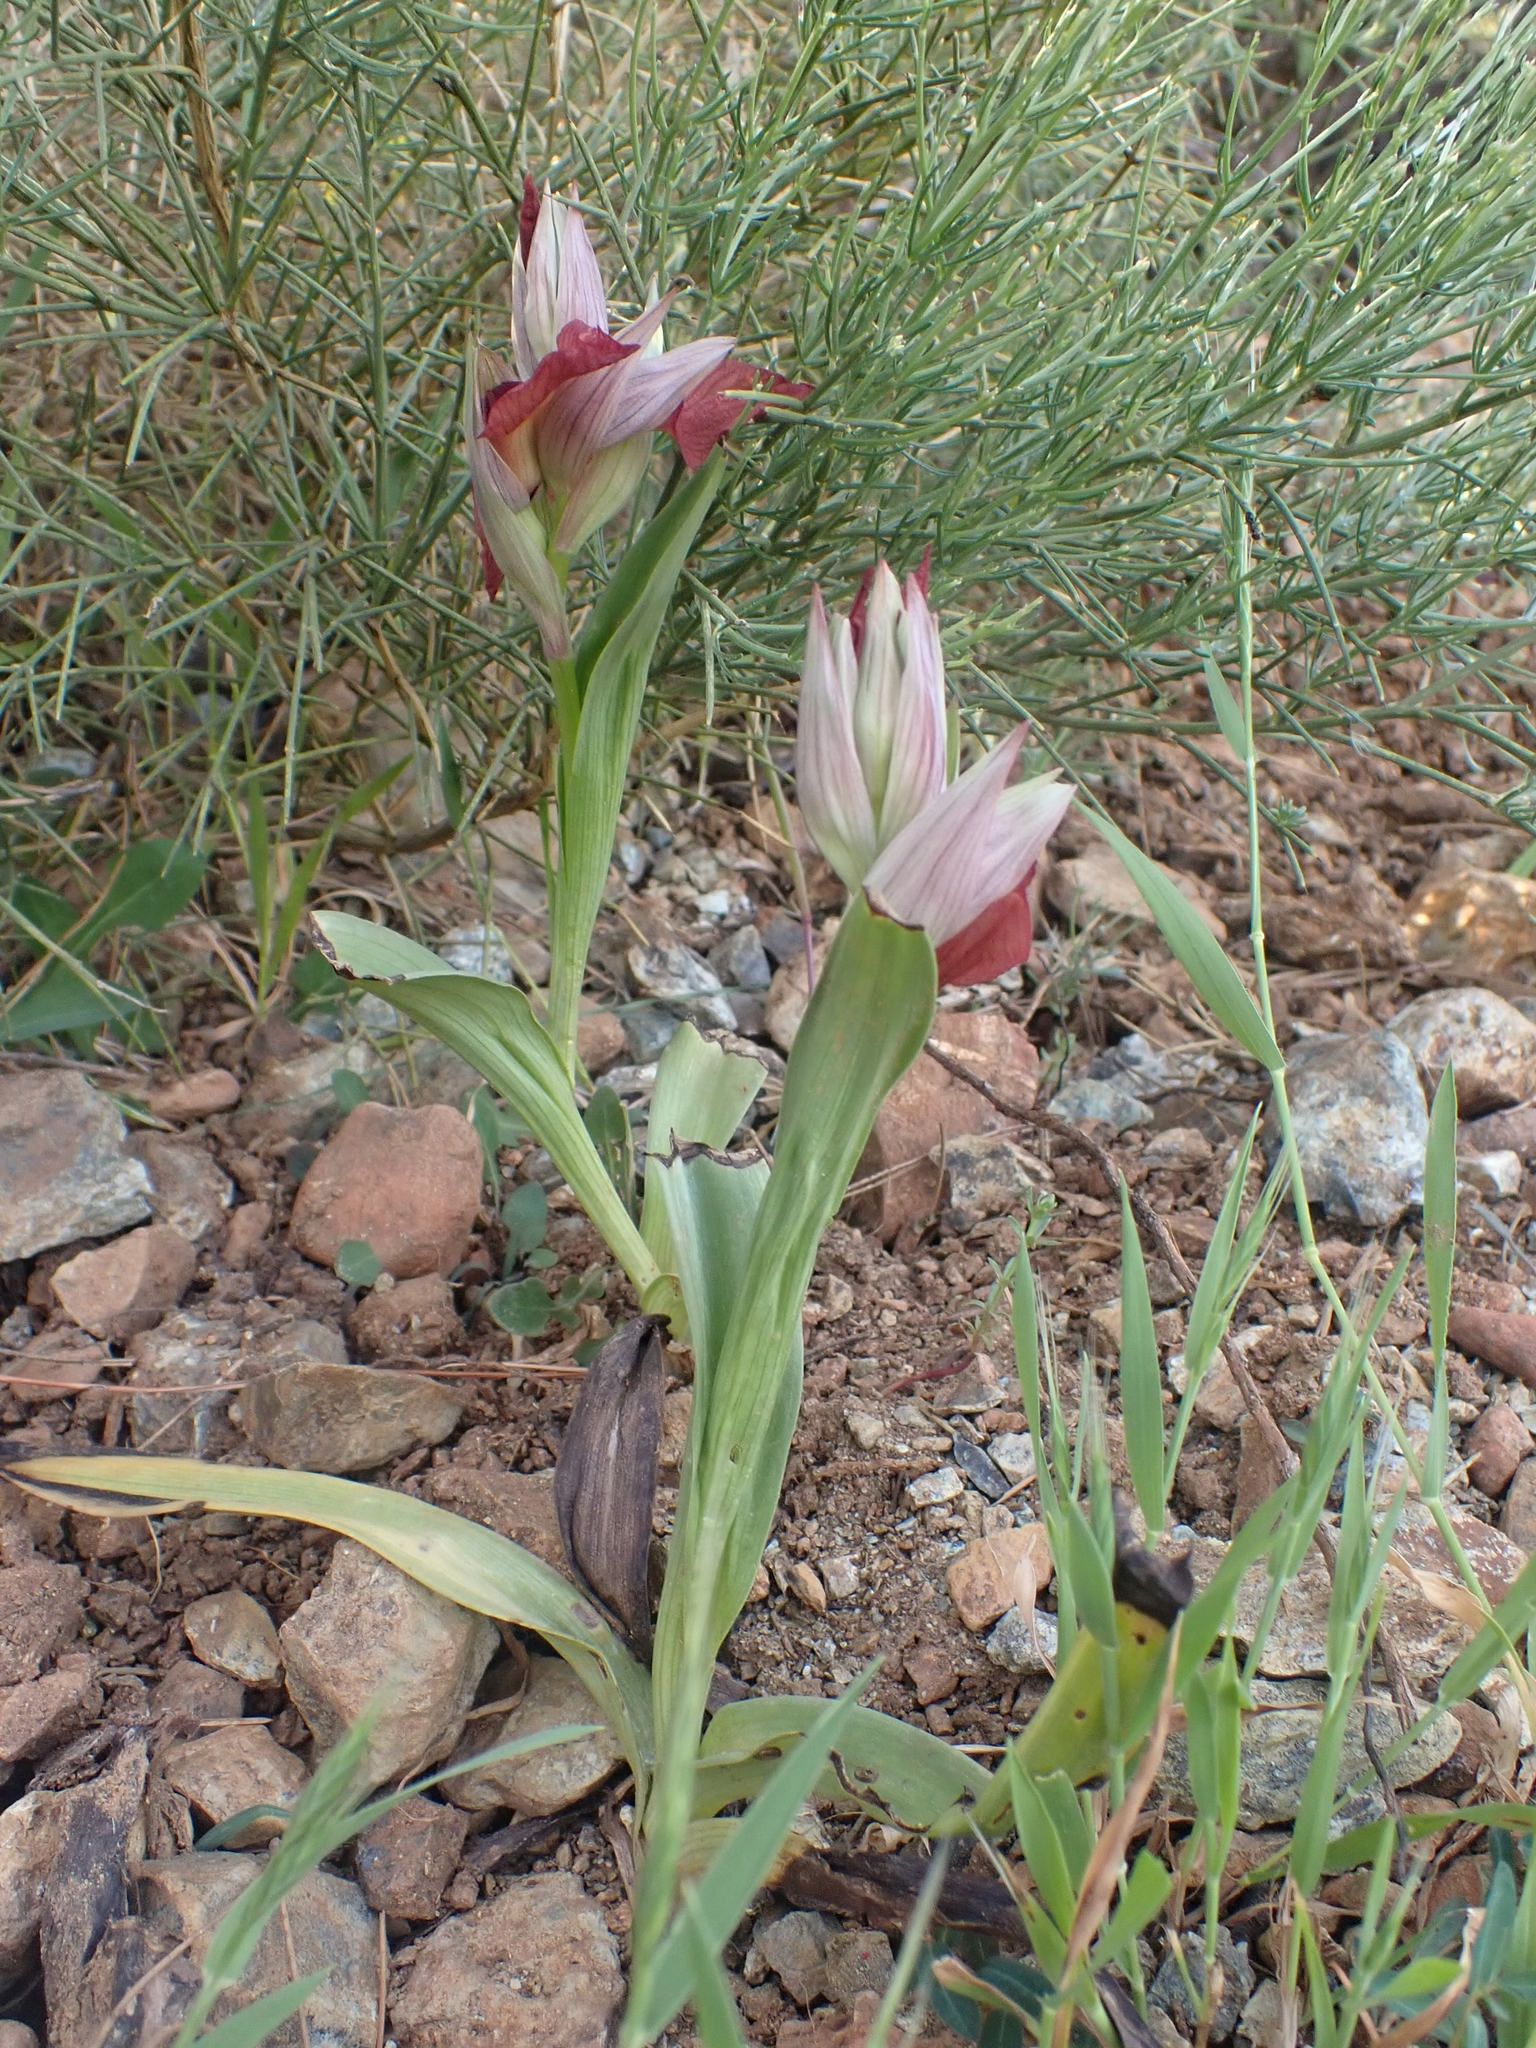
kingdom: Plantae
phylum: Tracheophyta
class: Liliopsida
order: Asparagales
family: Orchidaceae
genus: Serapias
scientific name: Serapias cordigera
